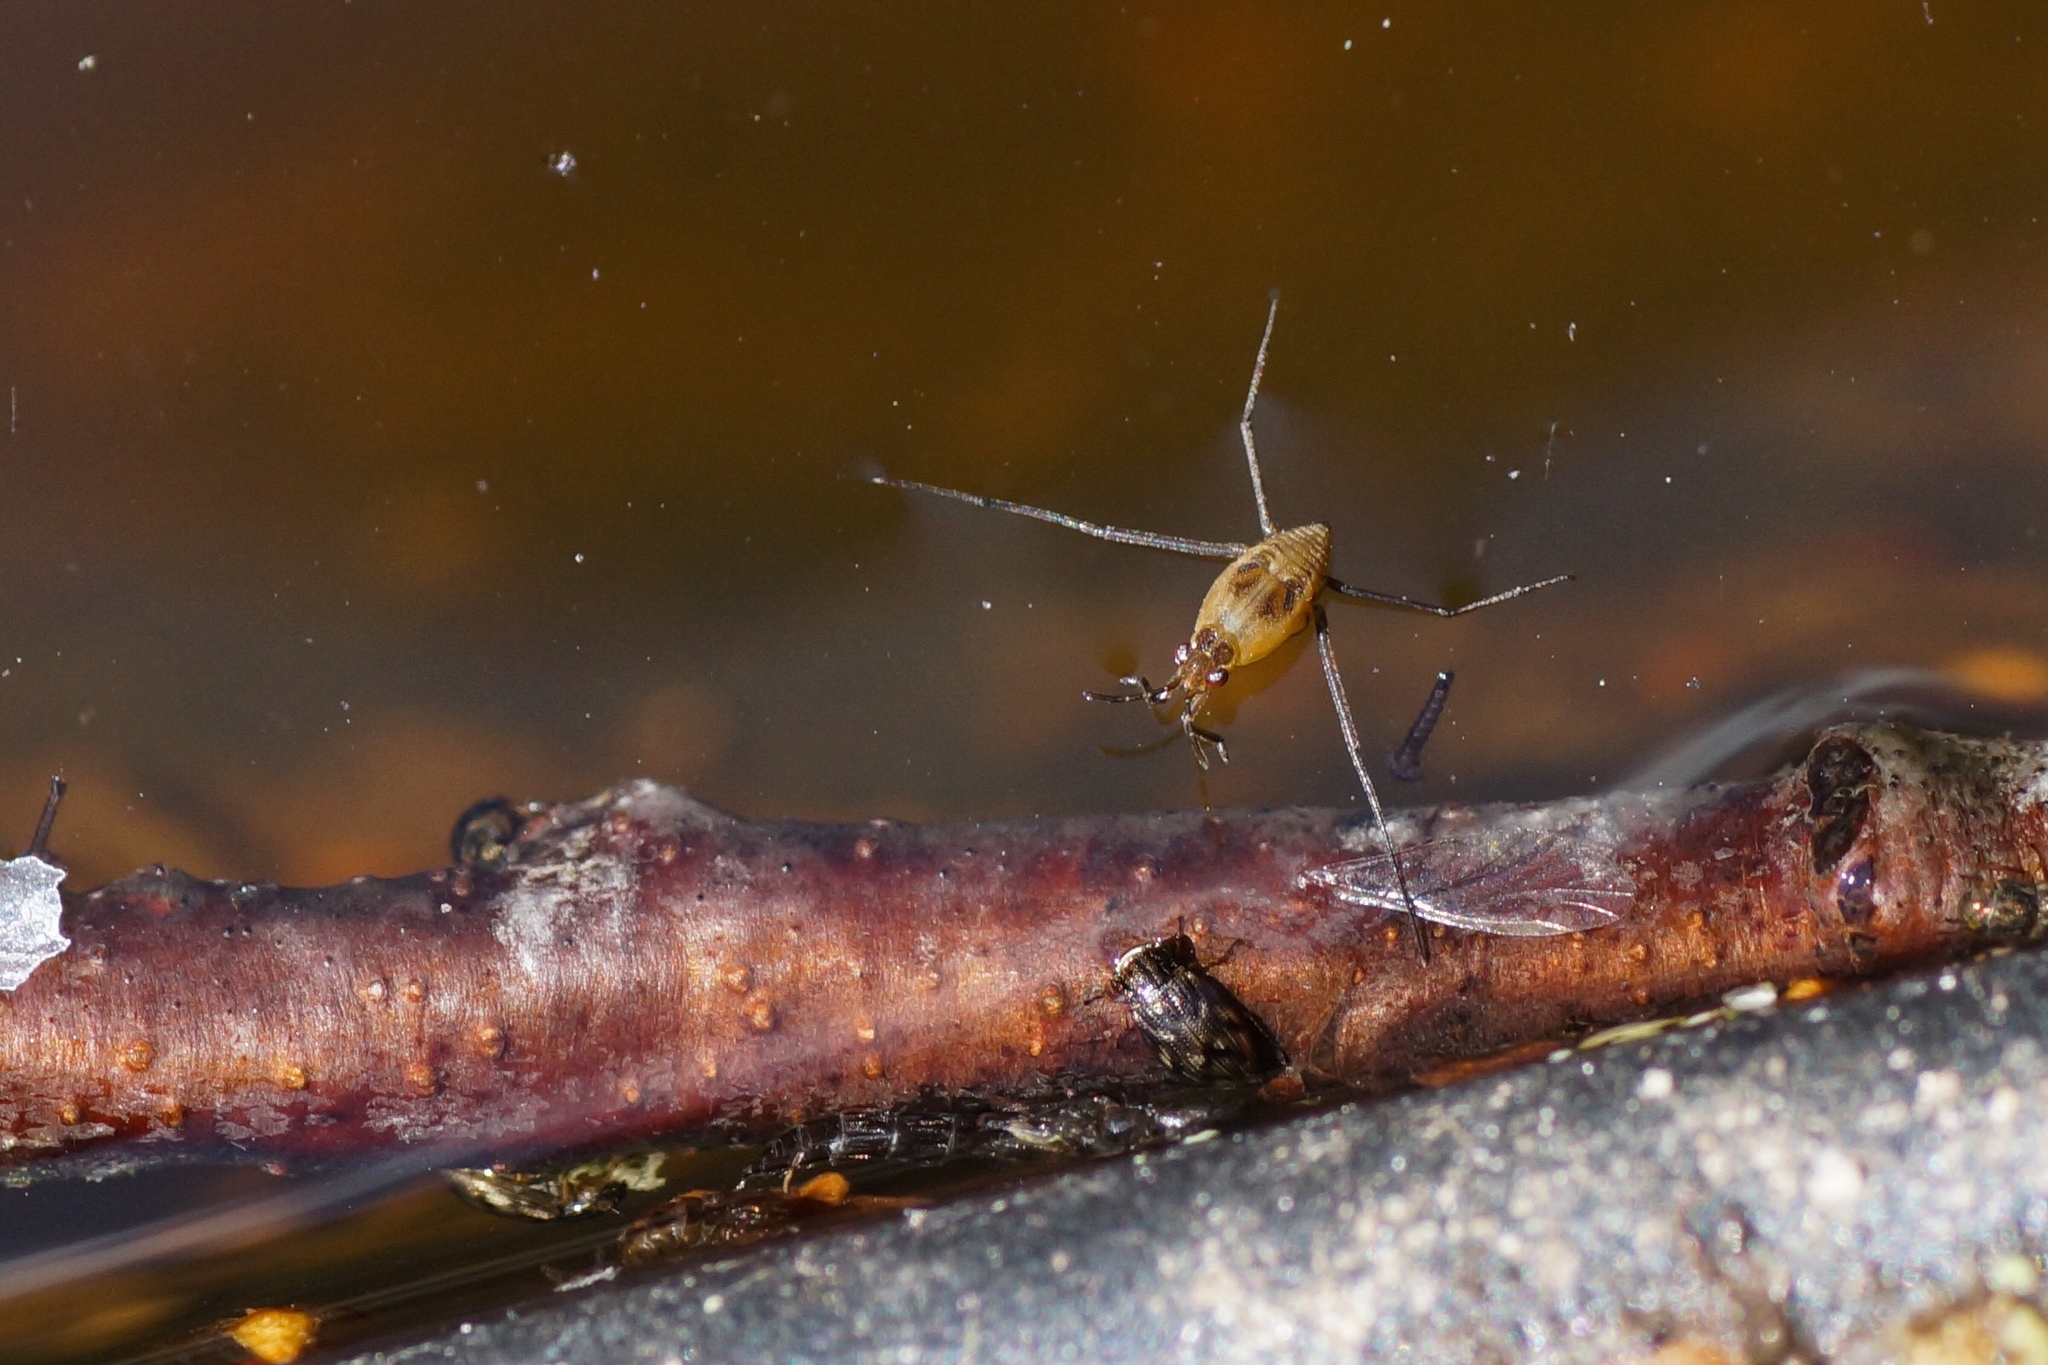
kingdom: Animalia
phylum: Arthropoda
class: Insecta
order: Hemiptera
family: Gerridae
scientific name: Gerridae
